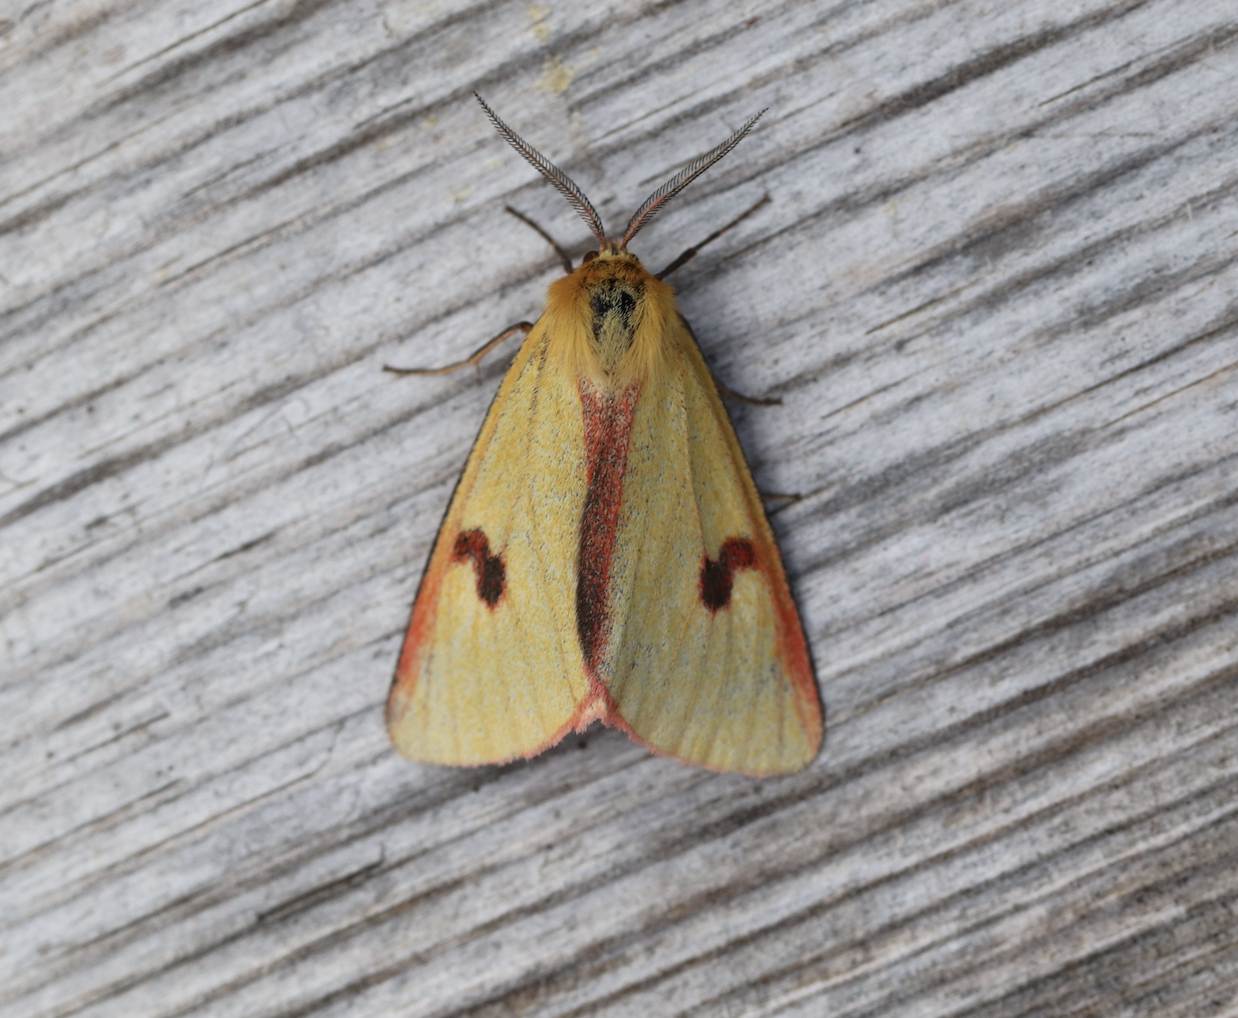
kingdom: Animalia
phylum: Arthropoda
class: Insecta
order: Lepidoptera
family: Erebidae
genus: Diacrisia
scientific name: Diacrisia sannio
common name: Clouded buff
